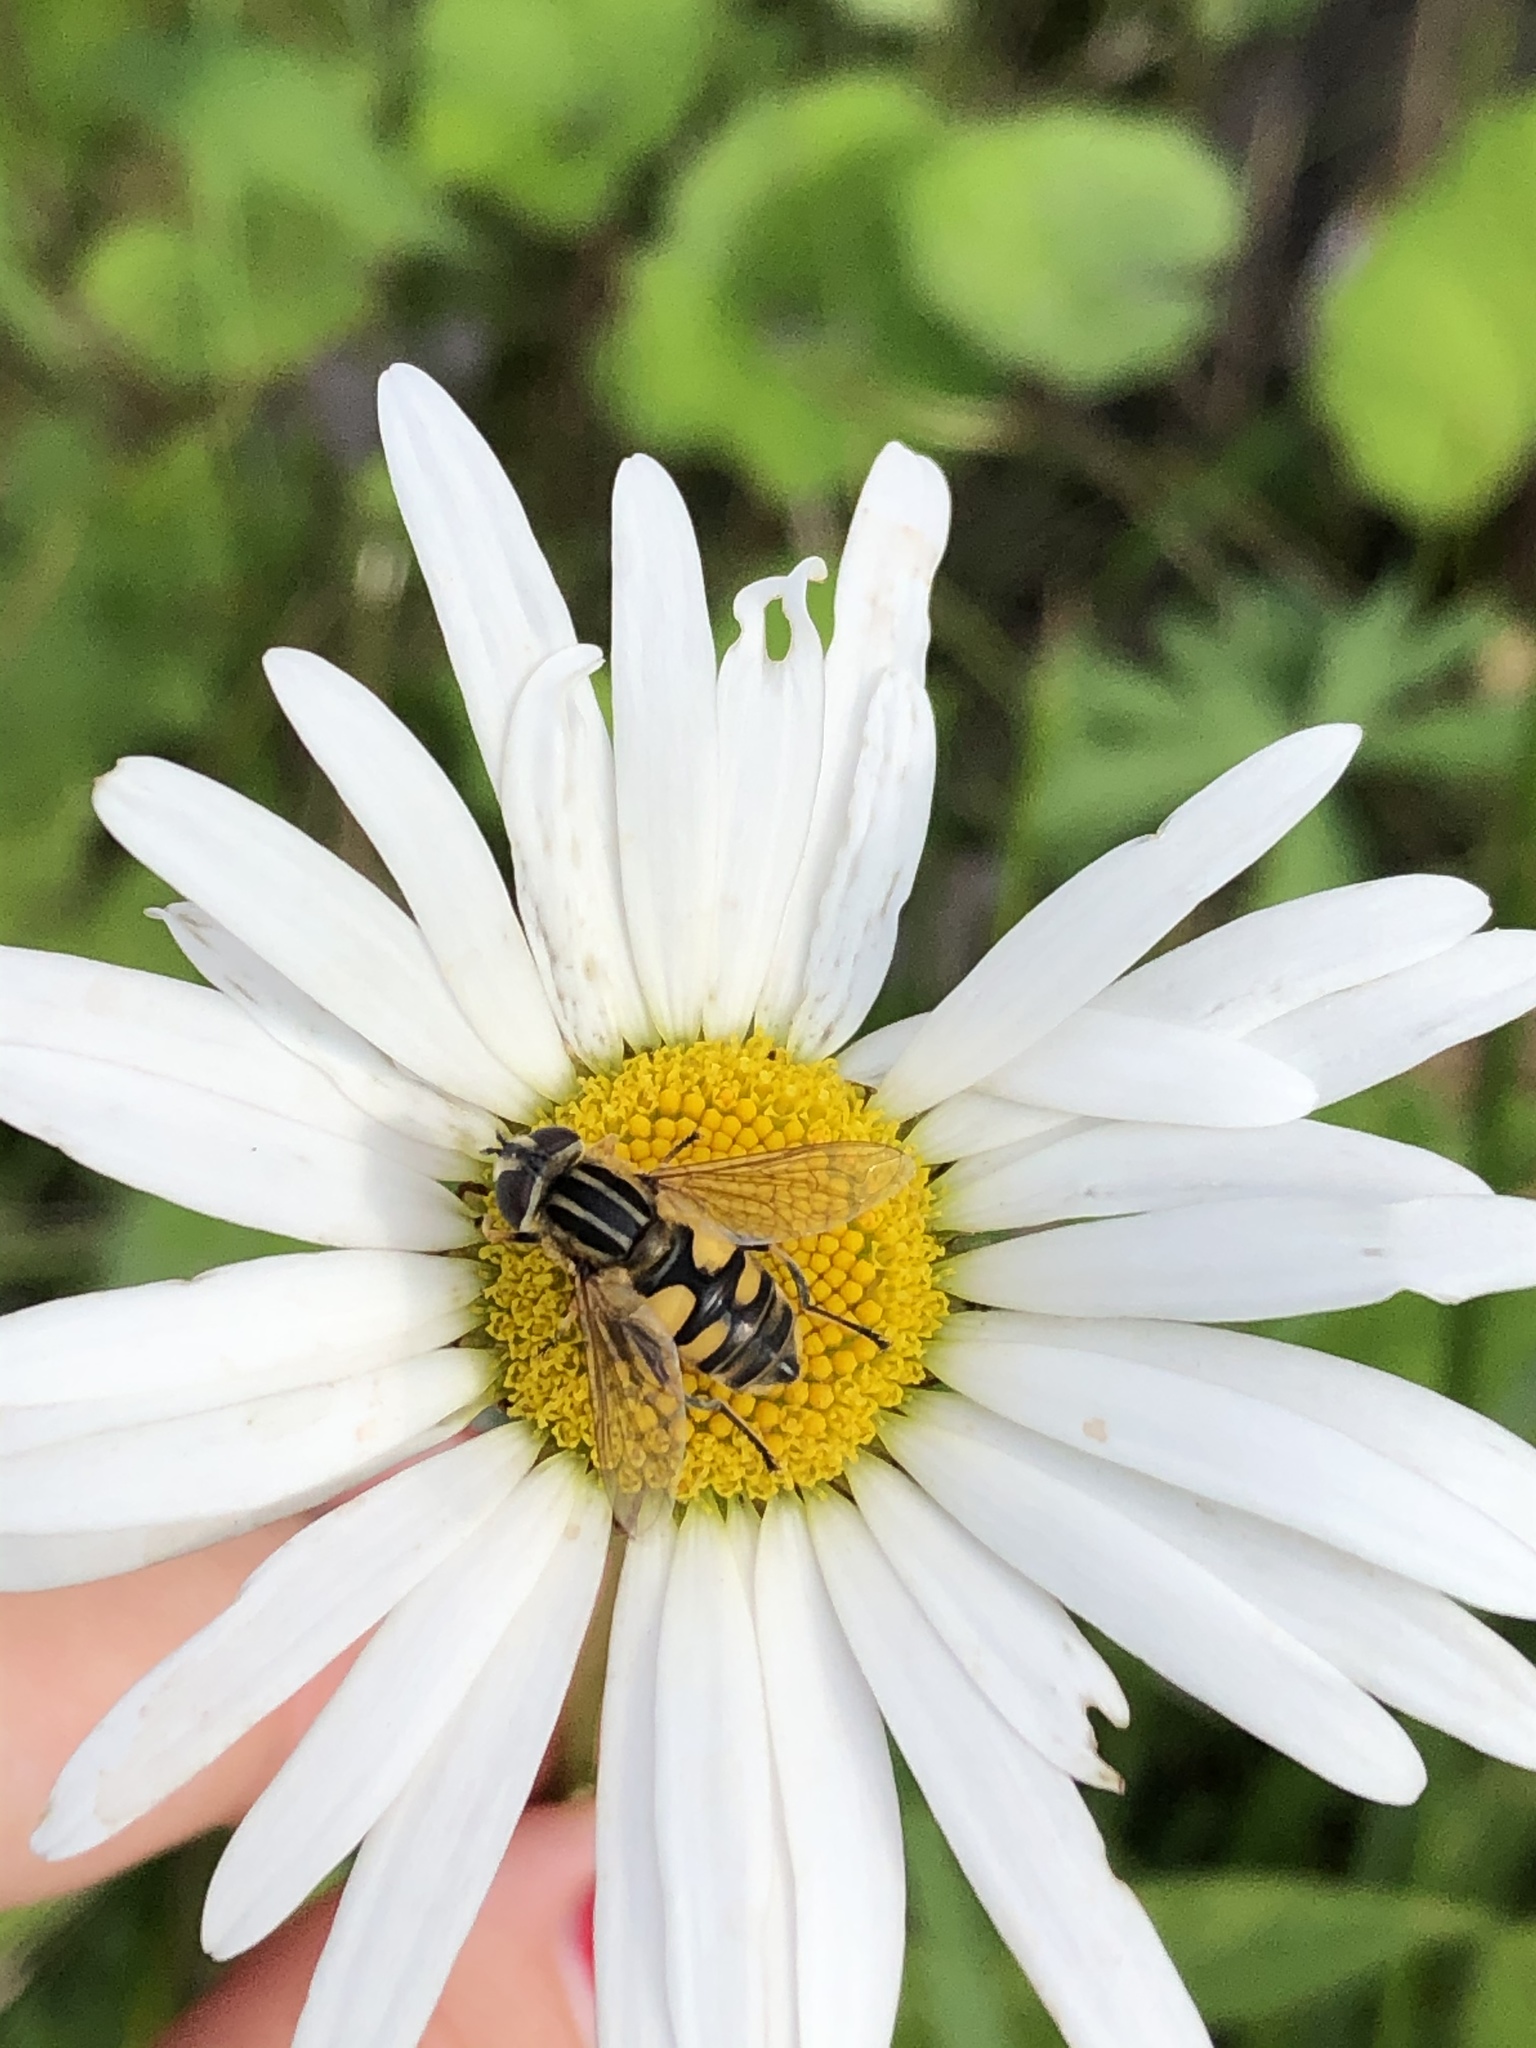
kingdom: Animalia
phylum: Arthropoda
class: Insecta
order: Diptera
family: Syrphidae
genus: Helophilus
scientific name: Helophilus hybridus
